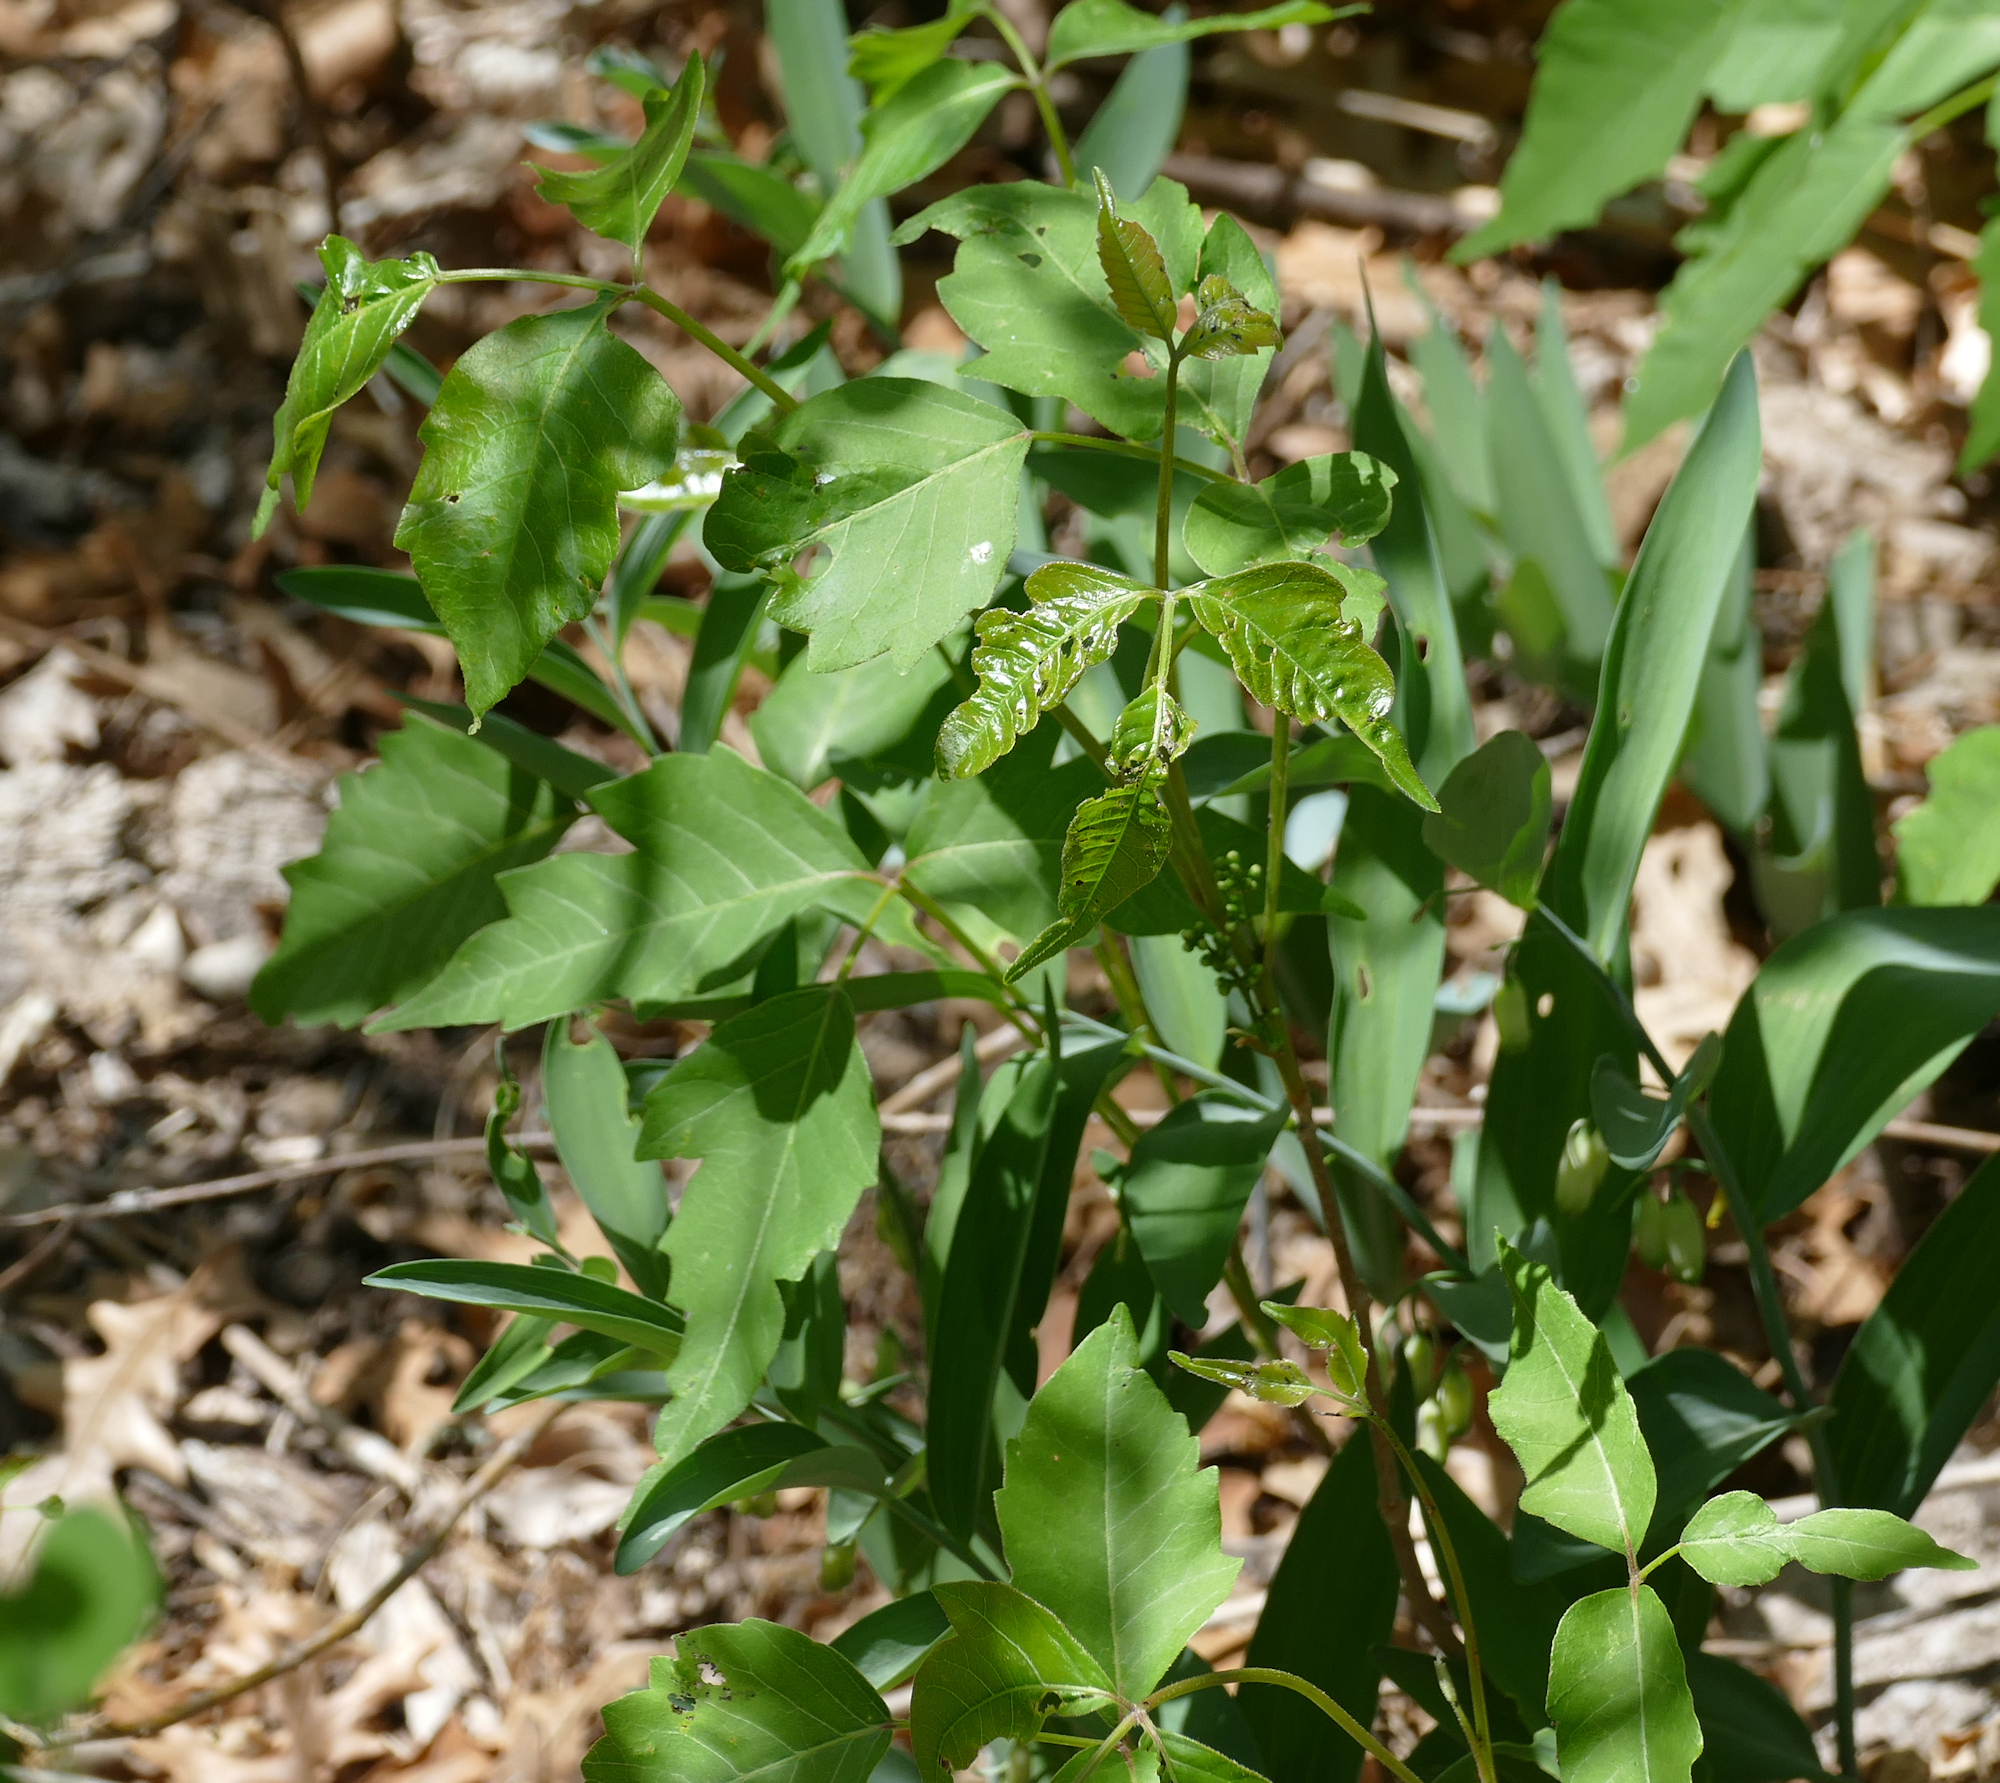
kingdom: Plantae
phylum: Tracheophyta
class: Magnoliopsida
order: Sapindales
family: Anacardiaceae
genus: Toxicodendron
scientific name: Toxicodendron rydbergii
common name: Rydberg's poison-ivy
